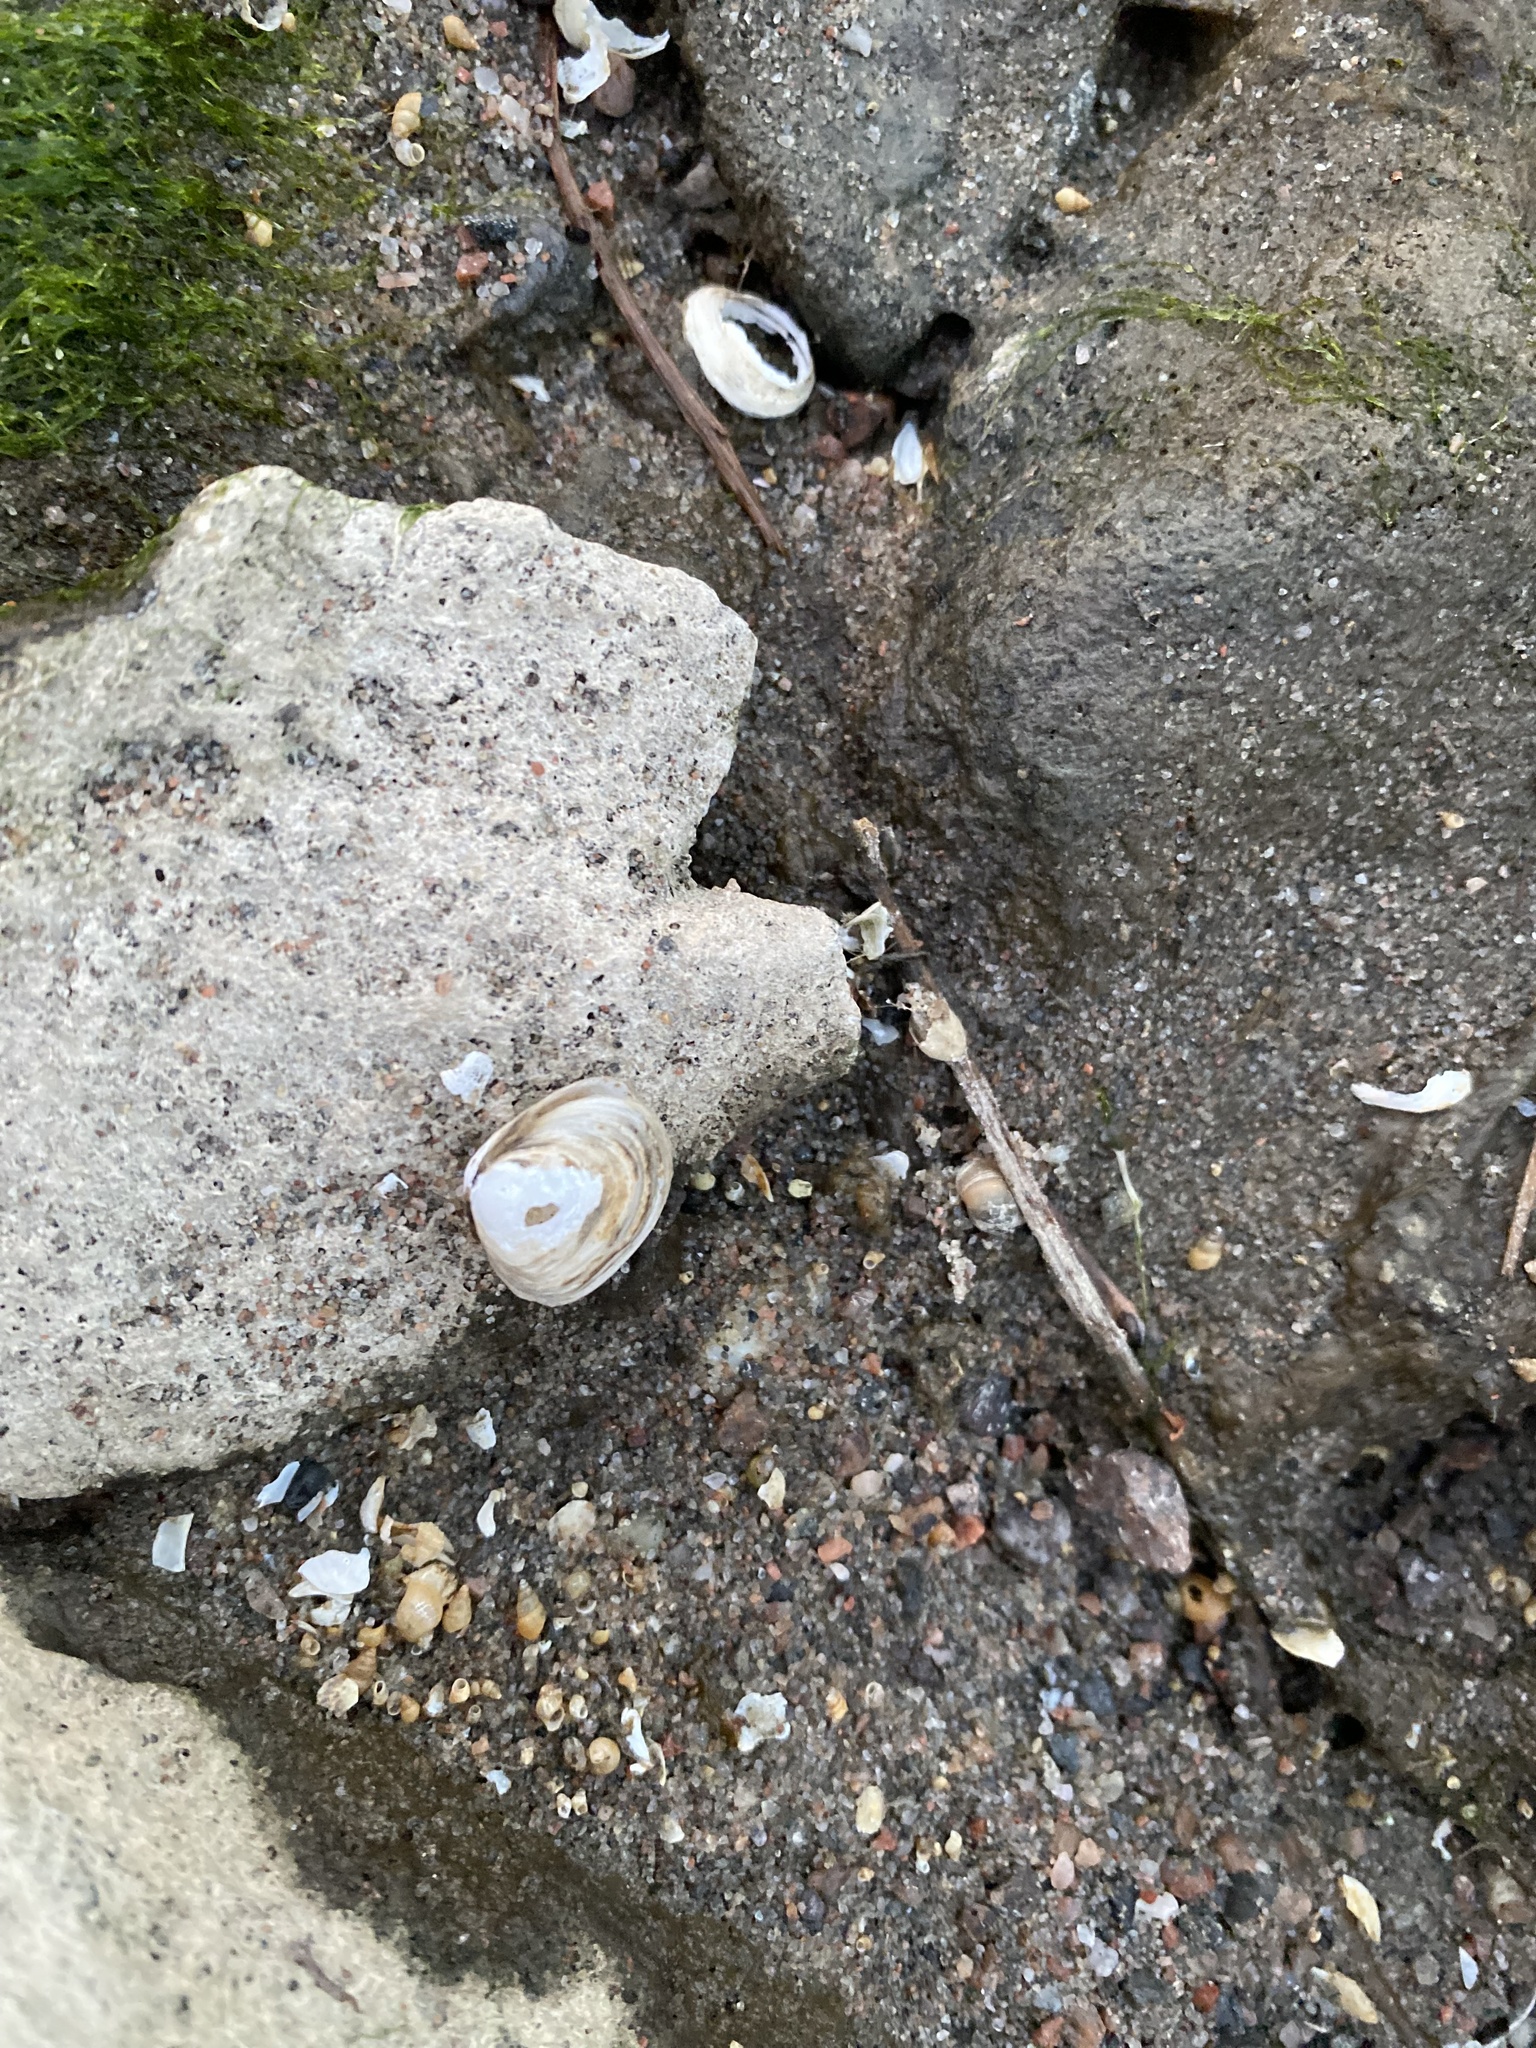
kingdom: Animalia
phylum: Mollusca
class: Bivalvia
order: Cardiida
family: Tellinidae
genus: Macoma
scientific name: Macoma balthica
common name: Baltic tellin
